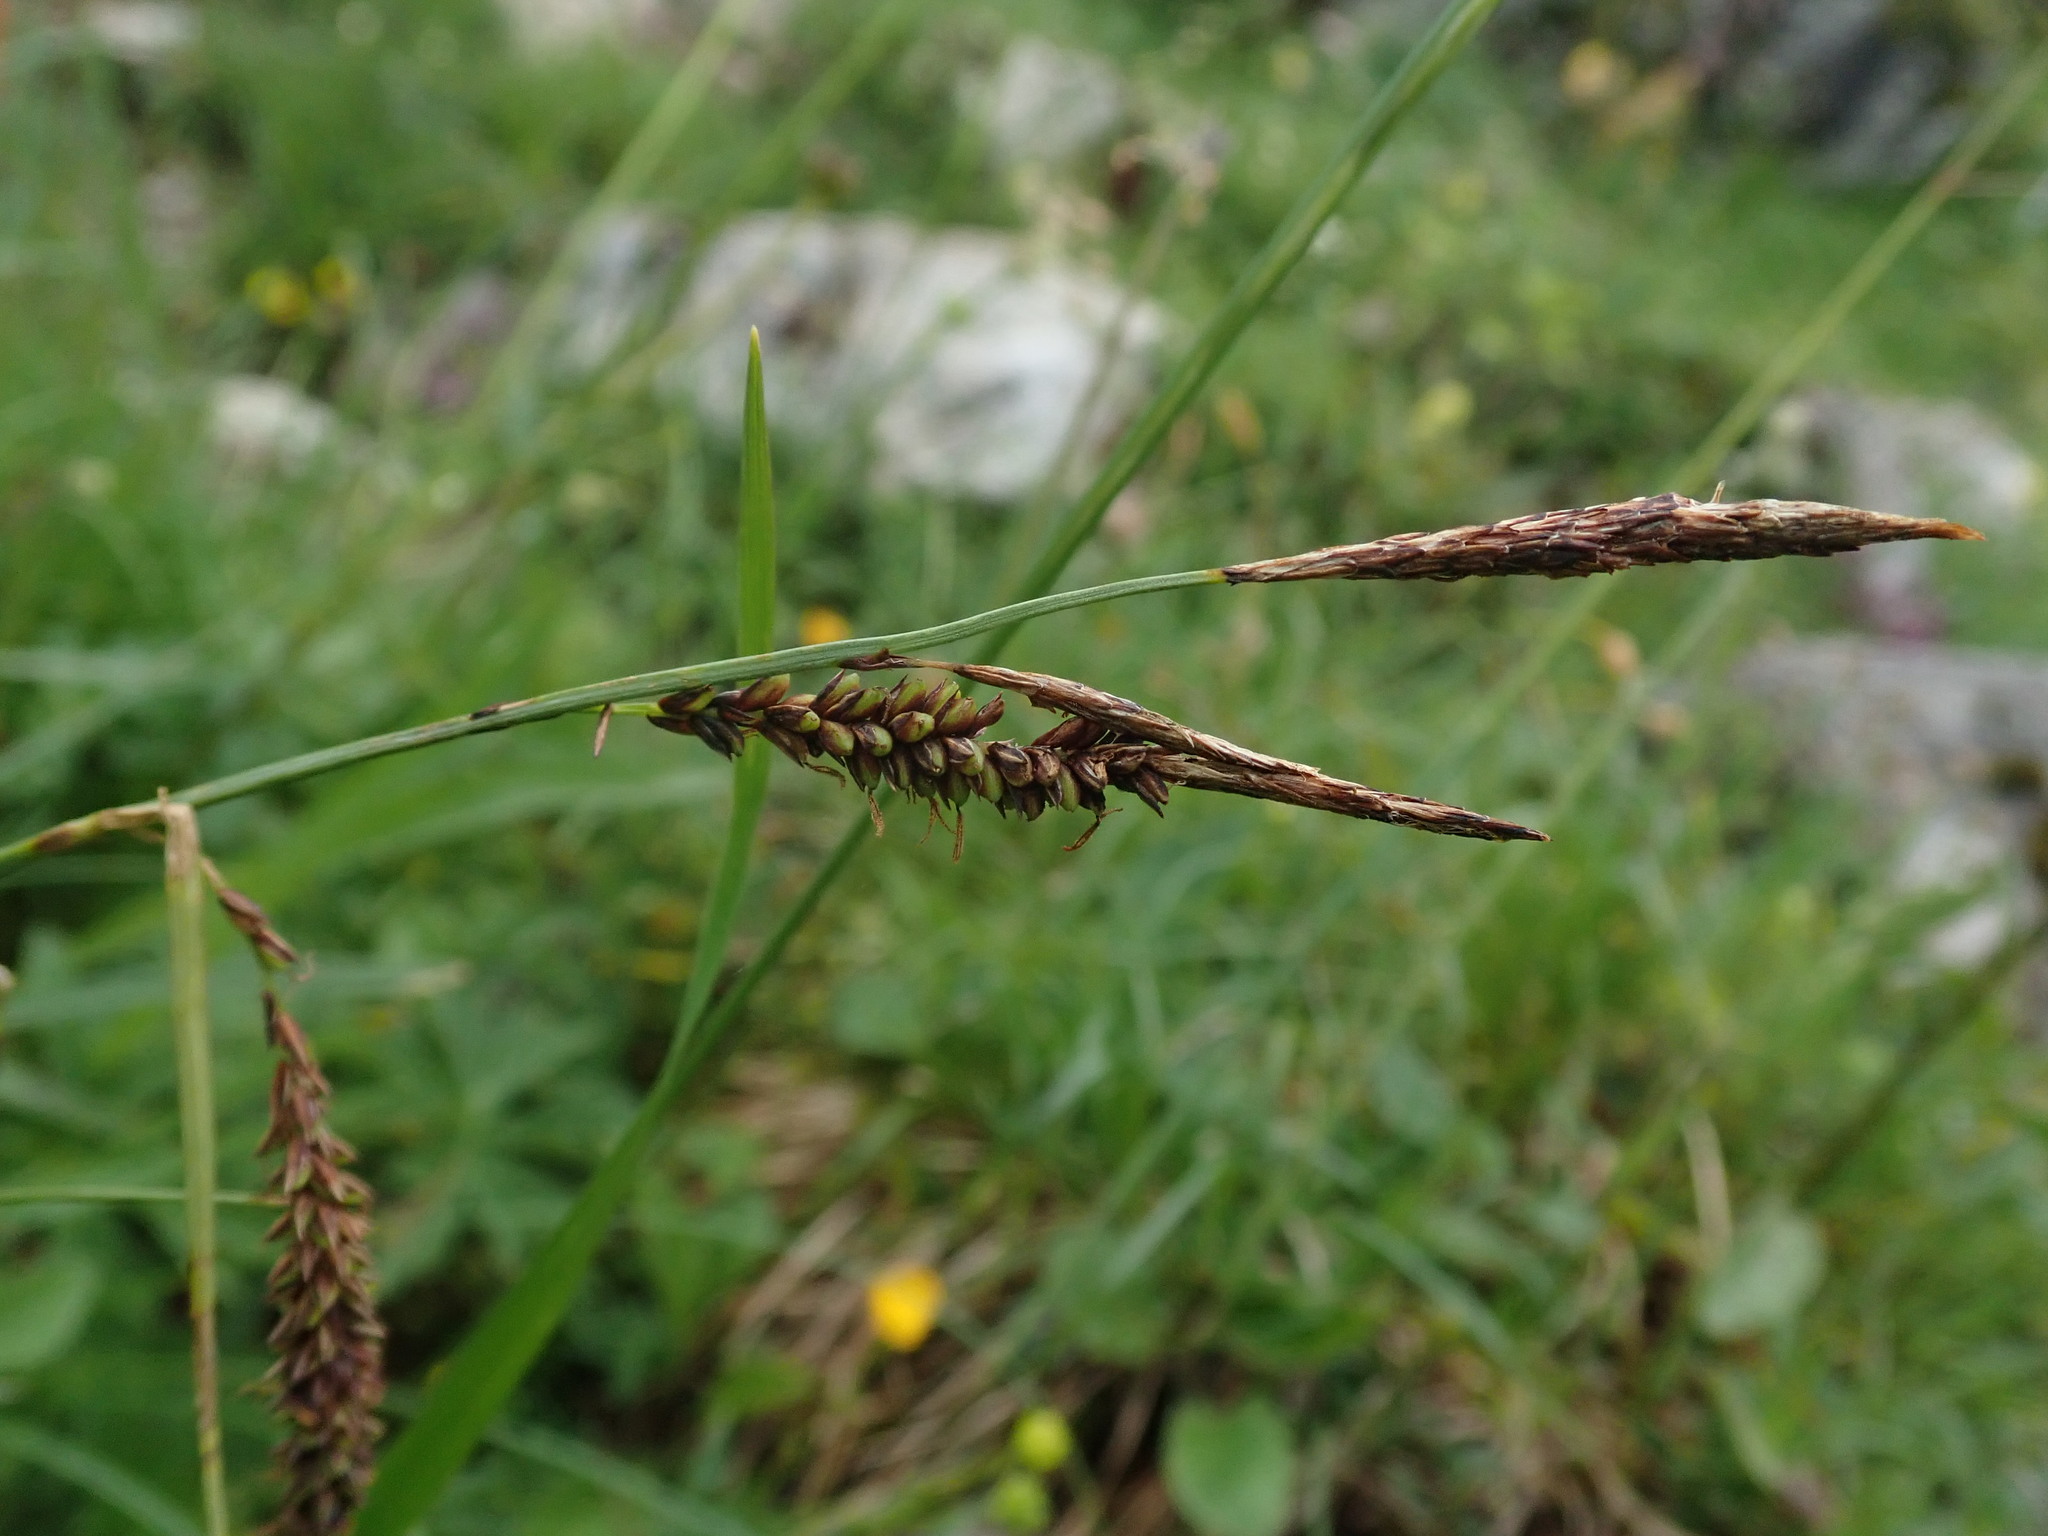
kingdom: Plantae
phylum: Tracheophyta
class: Liliopsida
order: Poales
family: Cyperaceae
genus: Carex
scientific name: Carex flacca
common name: Glaucous sedge
